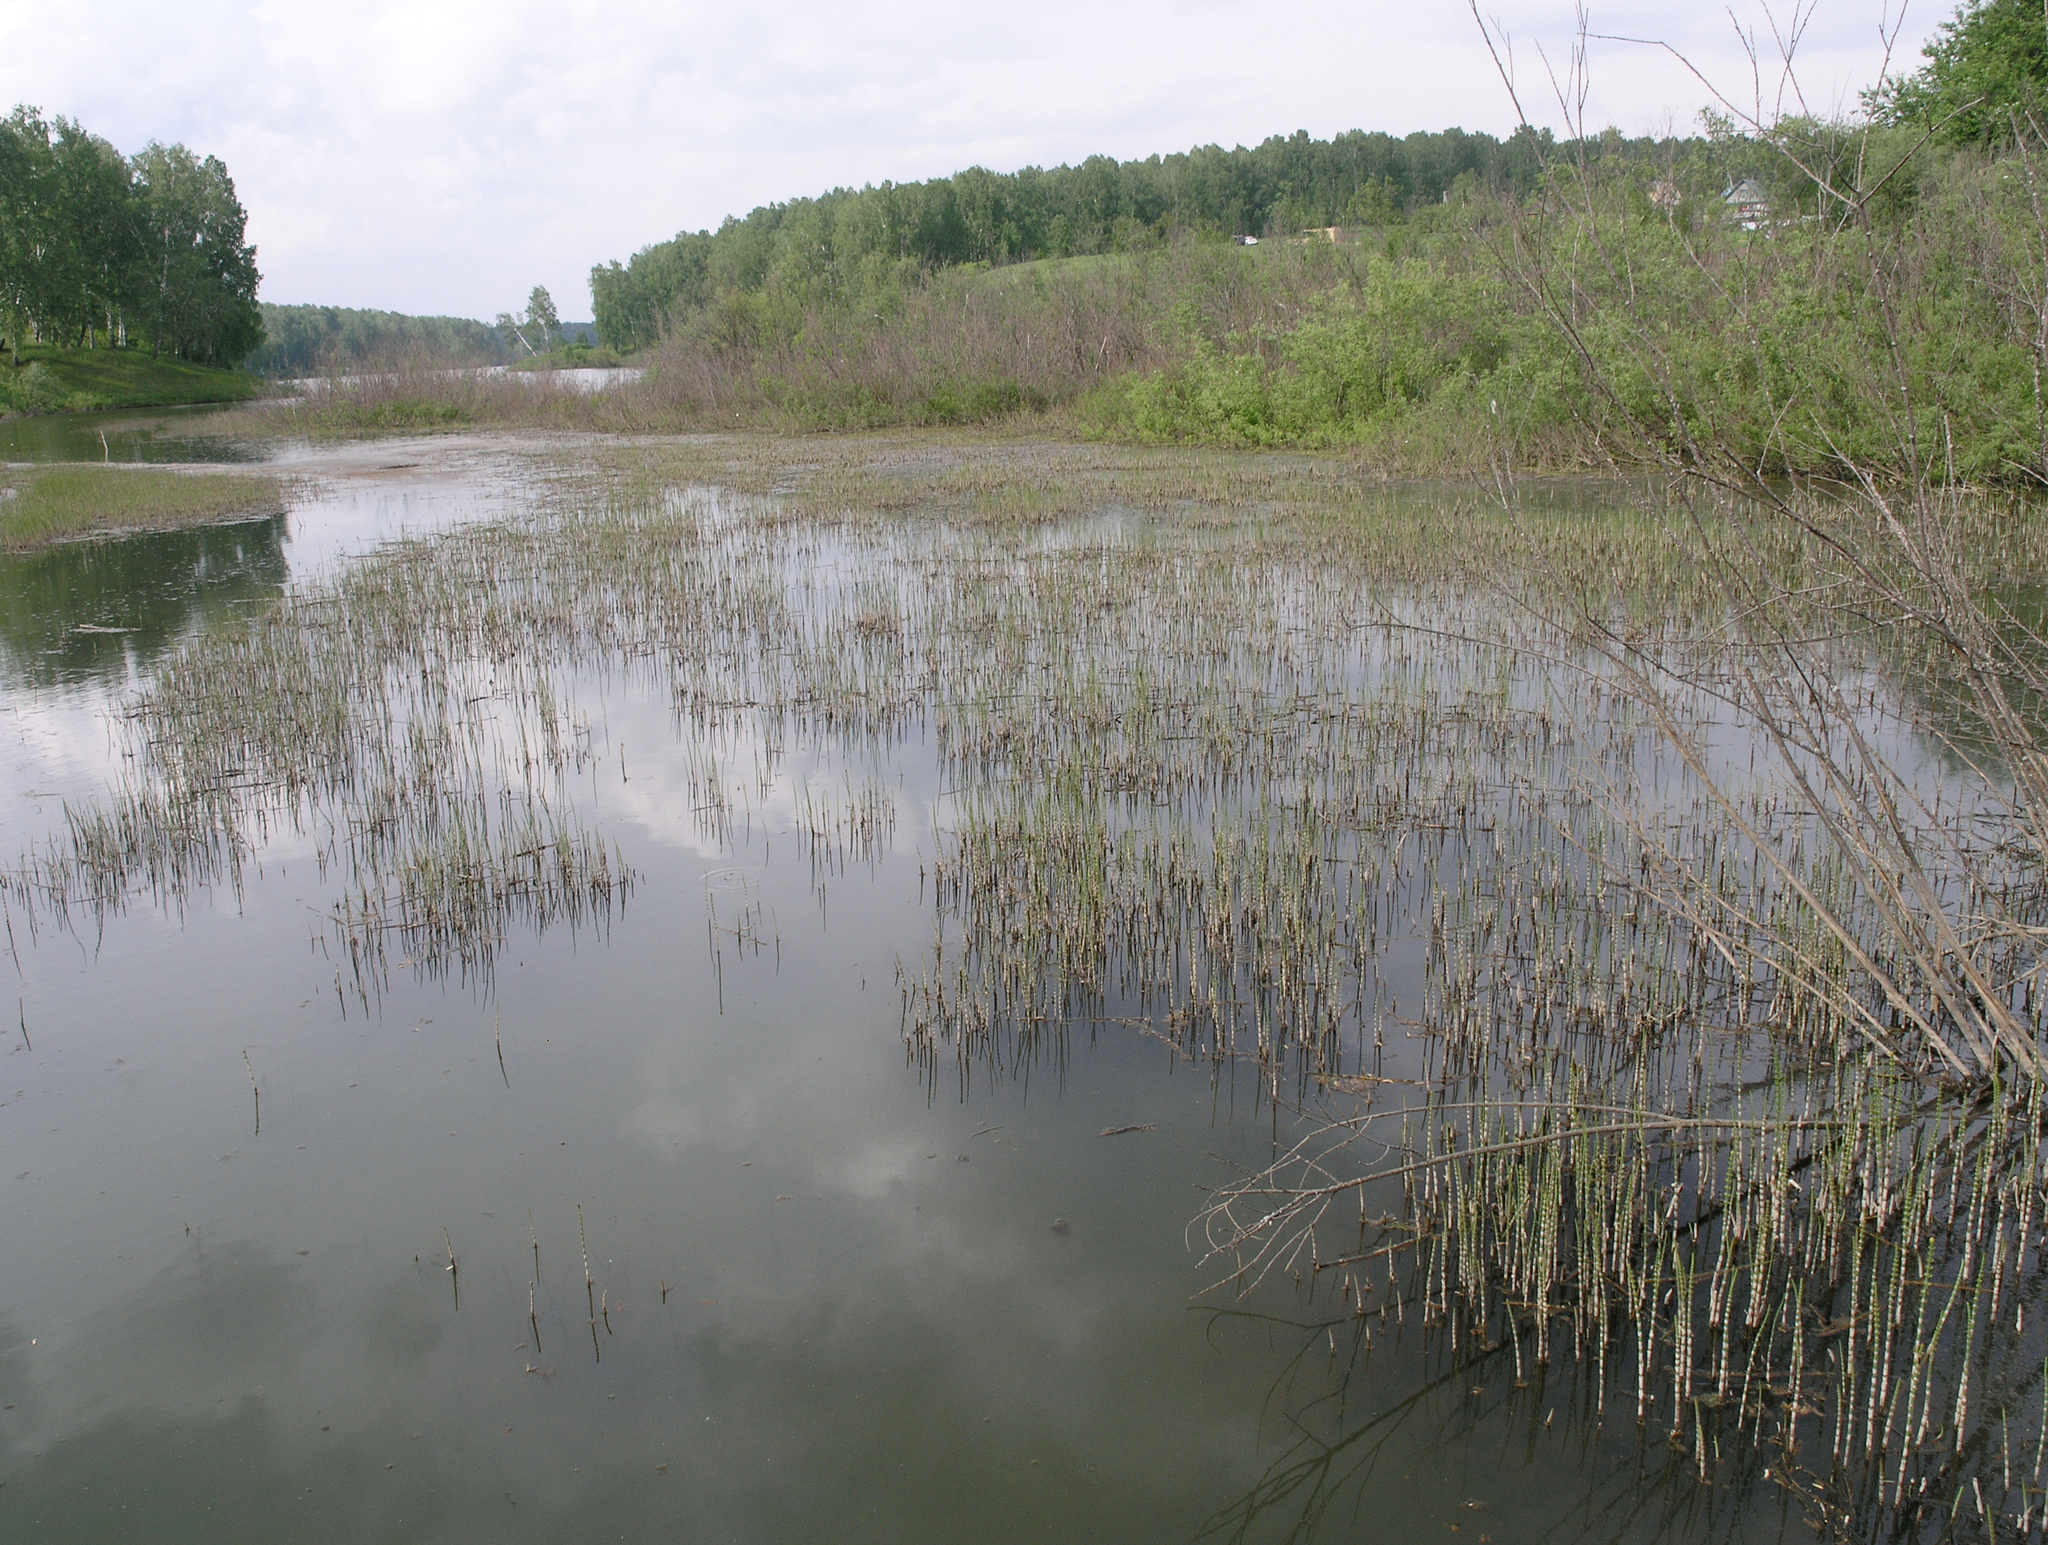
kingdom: Plantae
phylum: Tracheophyta
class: Polypodiopsida
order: Equisetales
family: Equisetaceae
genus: Equisetum
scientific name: Equisetum fluviatile
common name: Water horsetail
